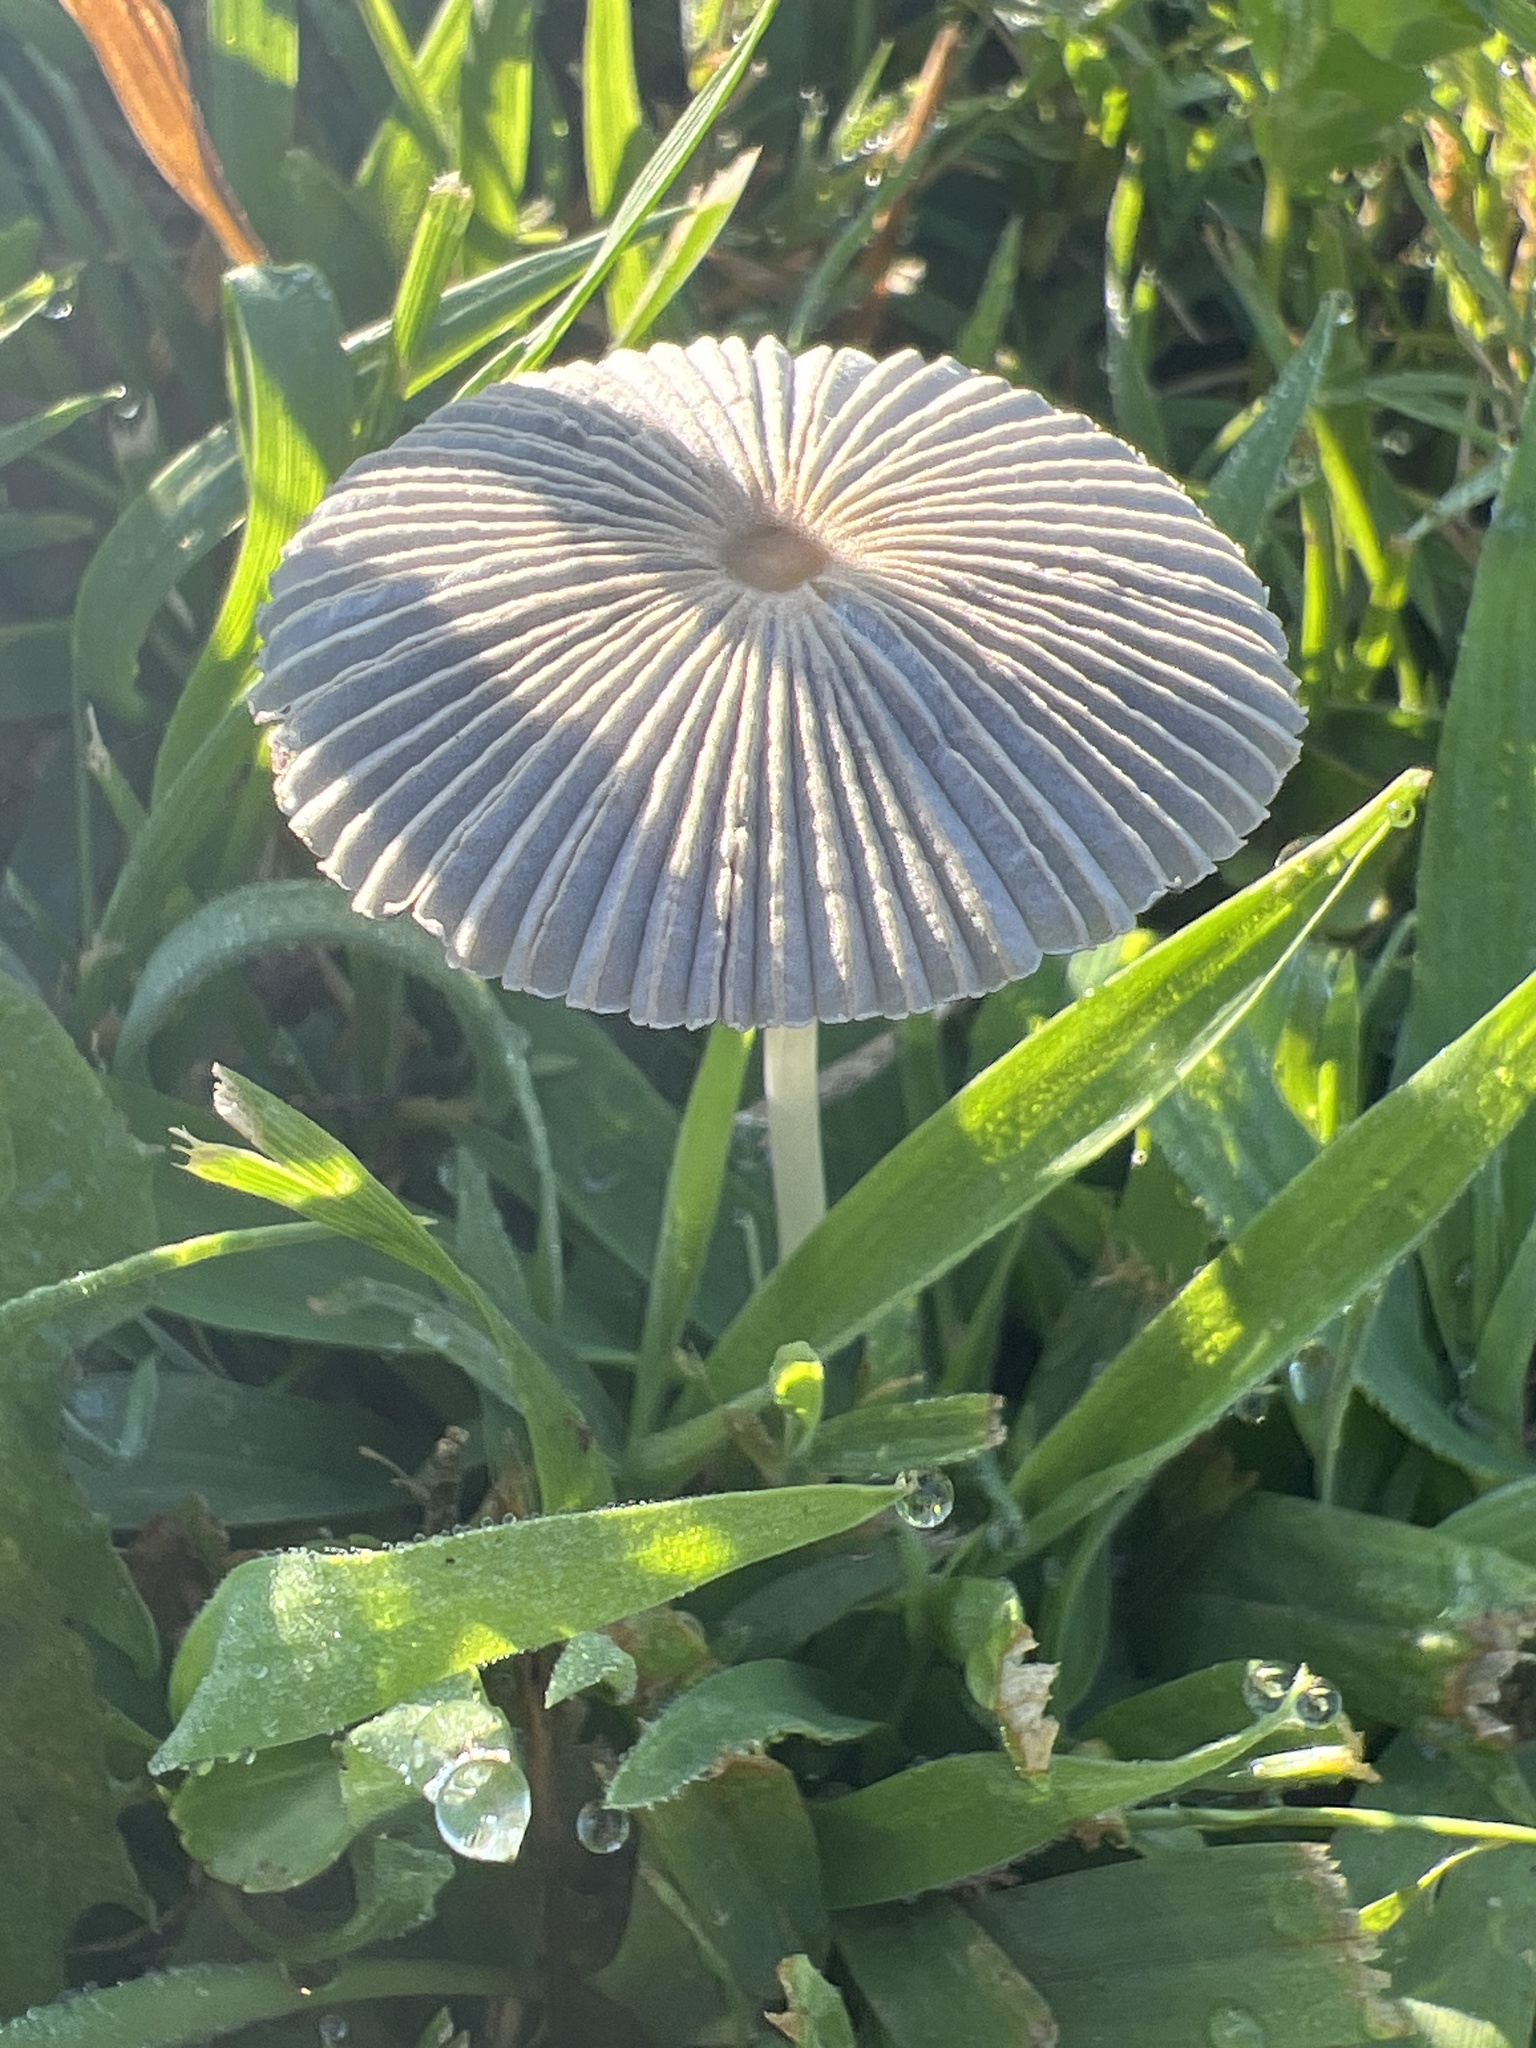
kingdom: Fungi
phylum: Basidiomycota
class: Agaricomycetes
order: Agaricales
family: Psathyrellaceae
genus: Parasola
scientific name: Parasola plicatilis
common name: Pleated inkcap
